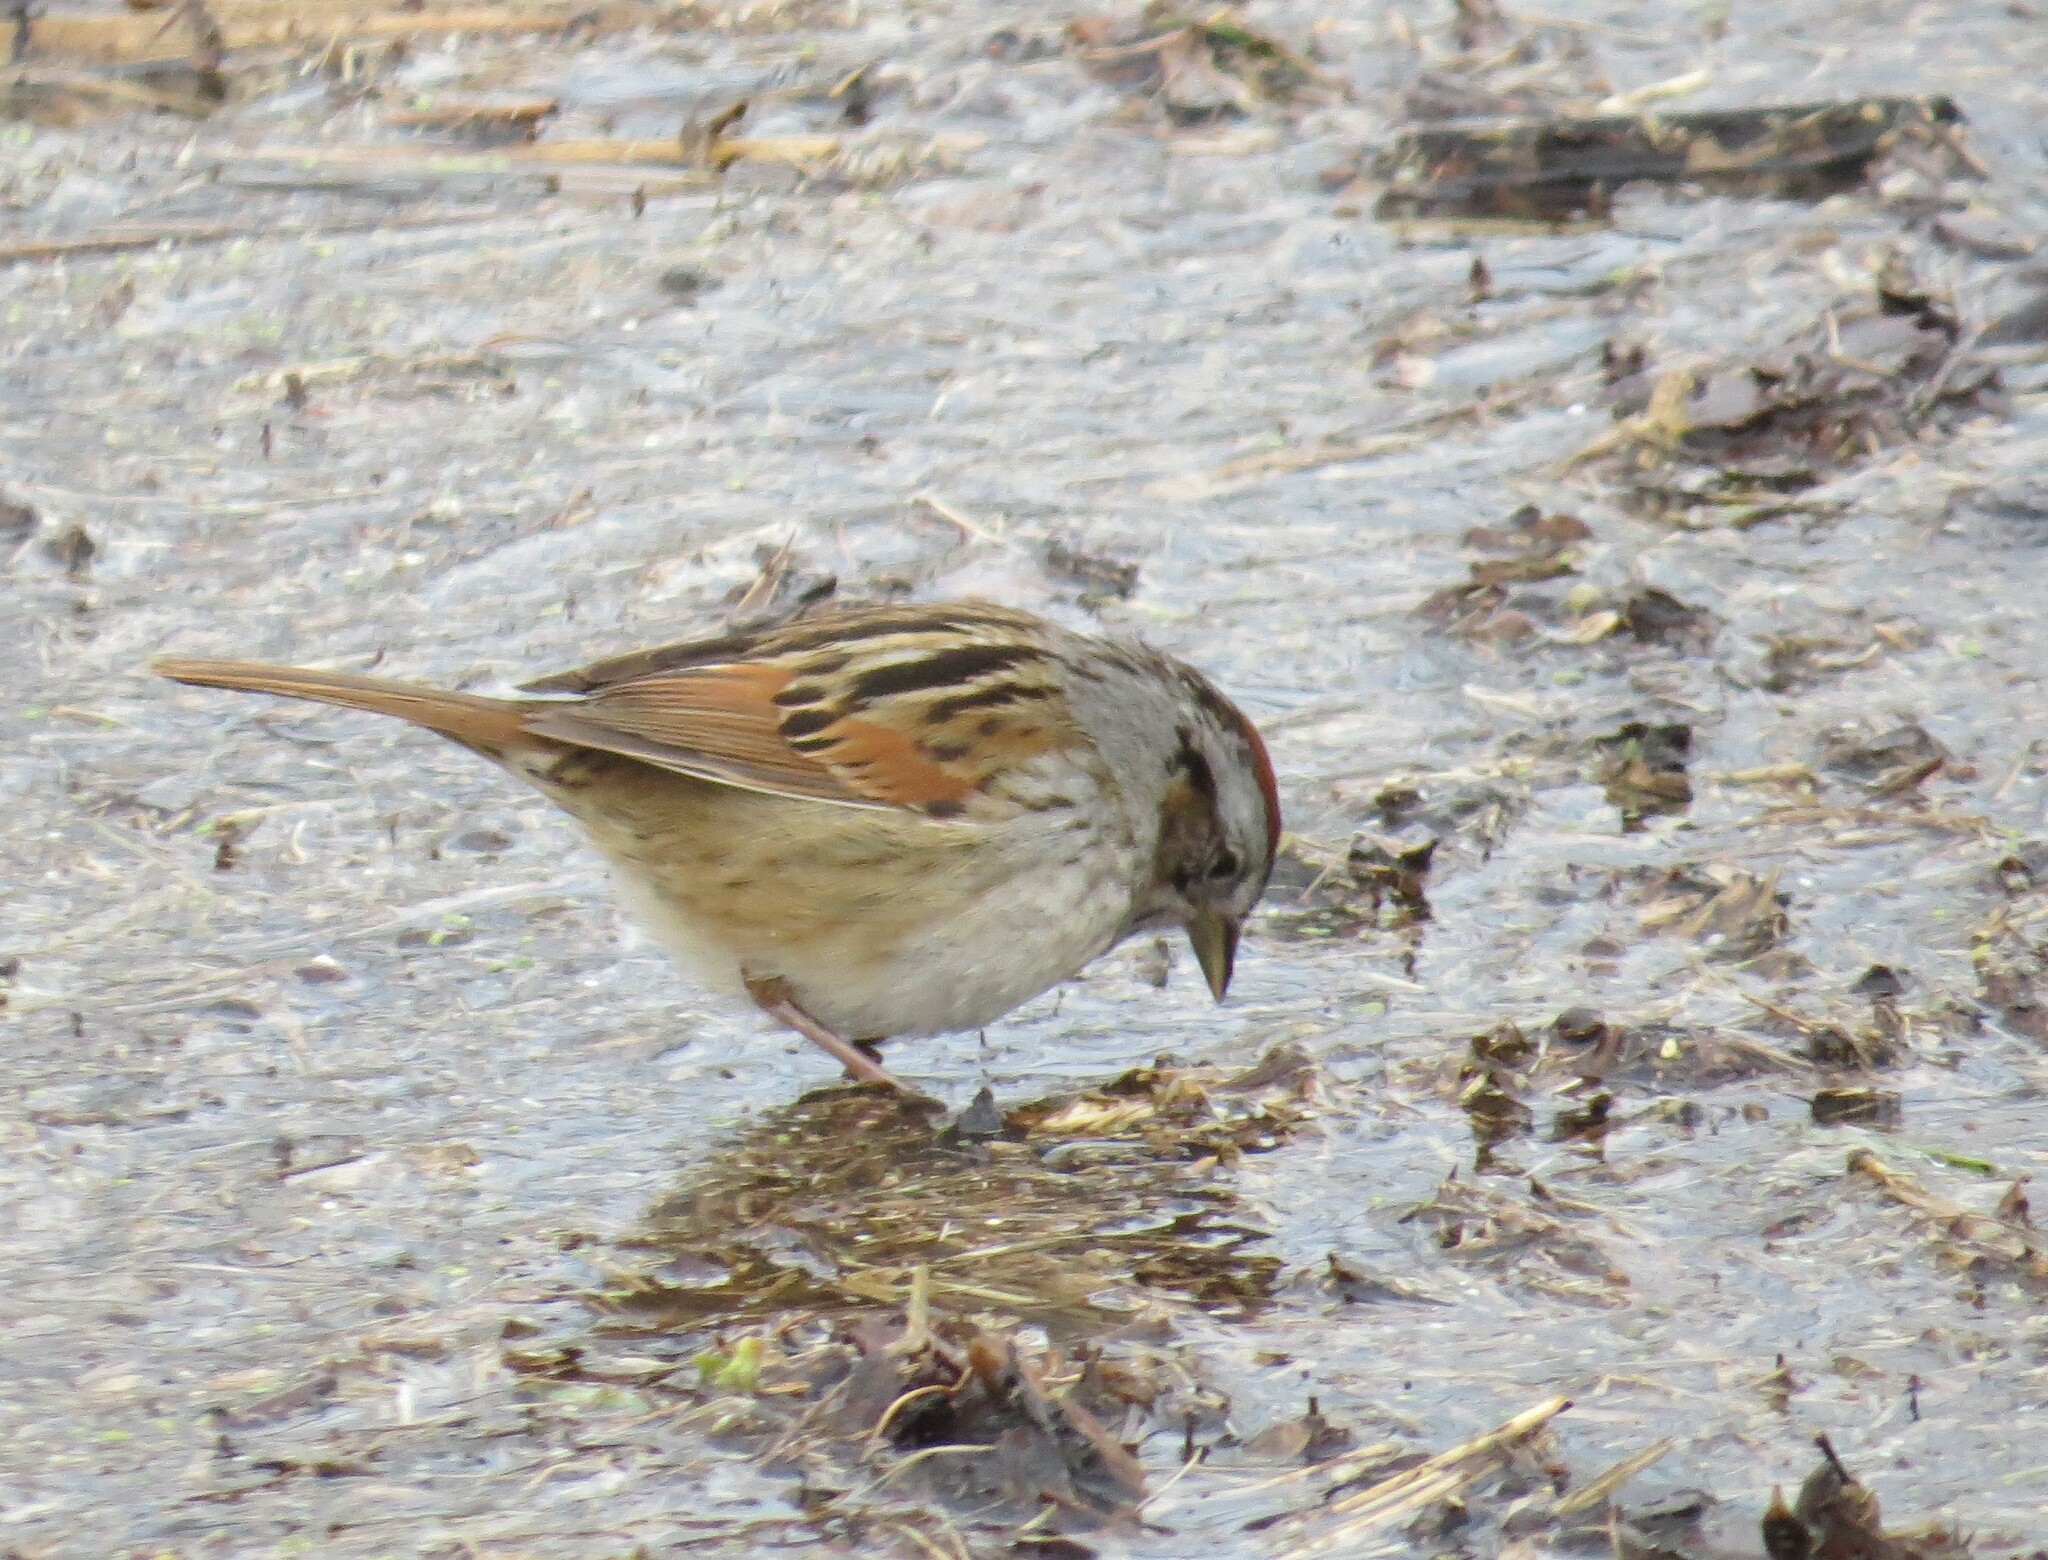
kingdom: Animalia
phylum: Chordata
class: Aves
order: Passeriformes
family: Passerellidae
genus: Melospiza
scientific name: Melospiza georgiana
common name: Swamp sparrow
